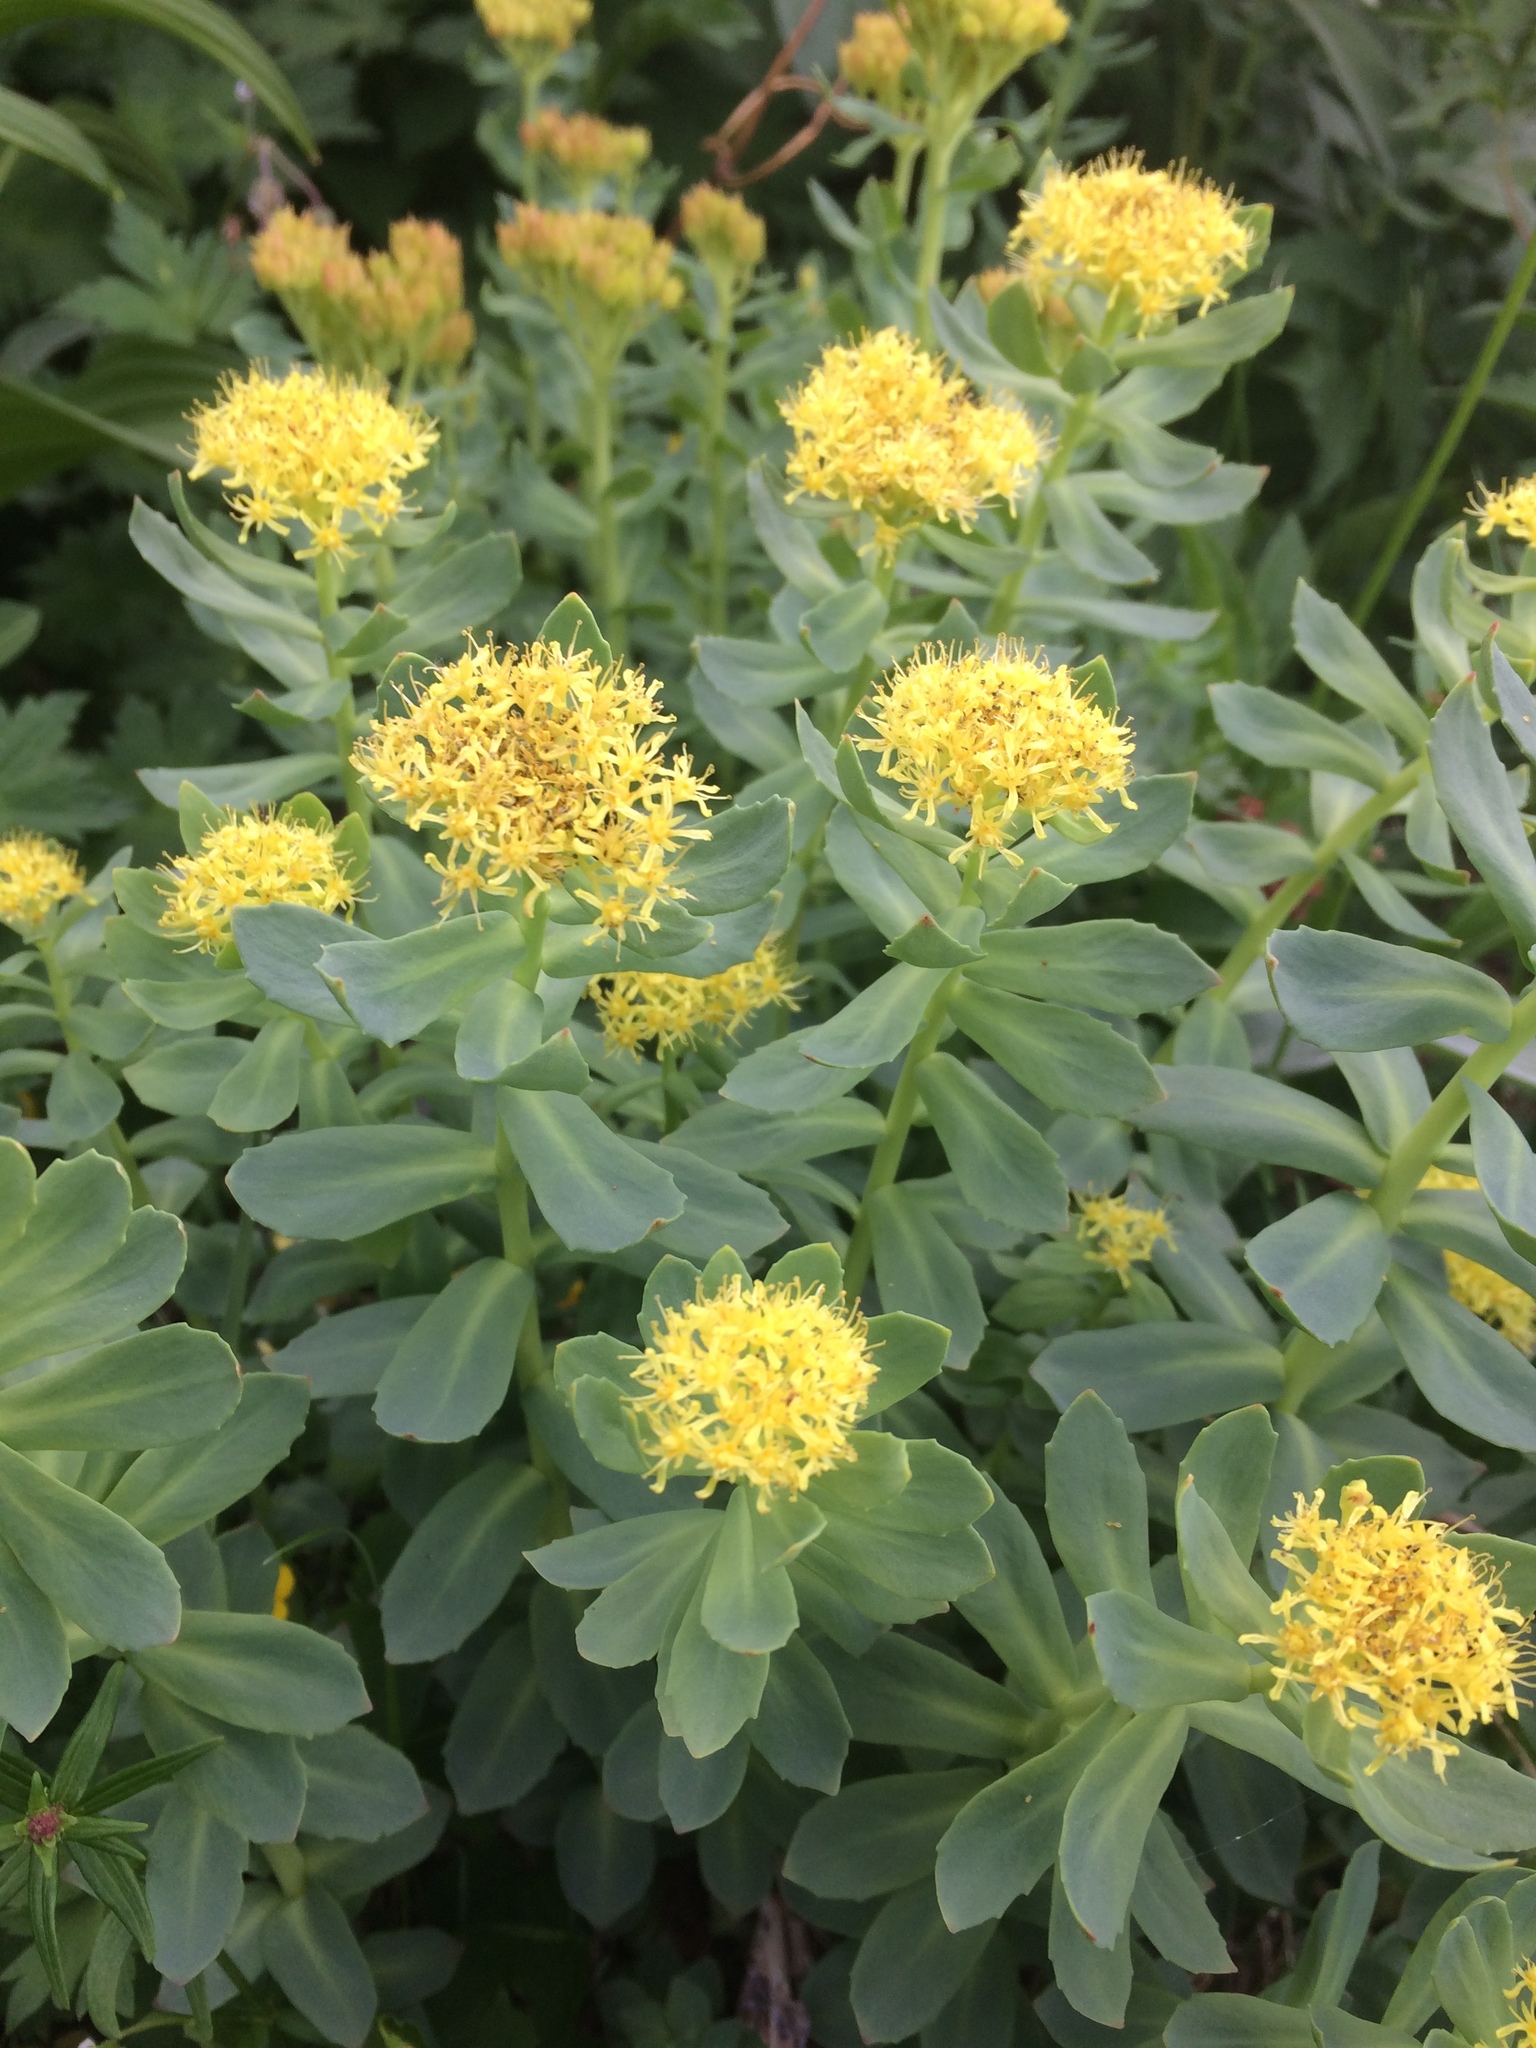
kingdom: Plantae
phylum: Tracheophyta
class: Magnoliopsida
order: Saxifragales
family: Crassulaceae
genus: Rhodiola
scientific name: Rhodiola rosea
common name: Roseroot
